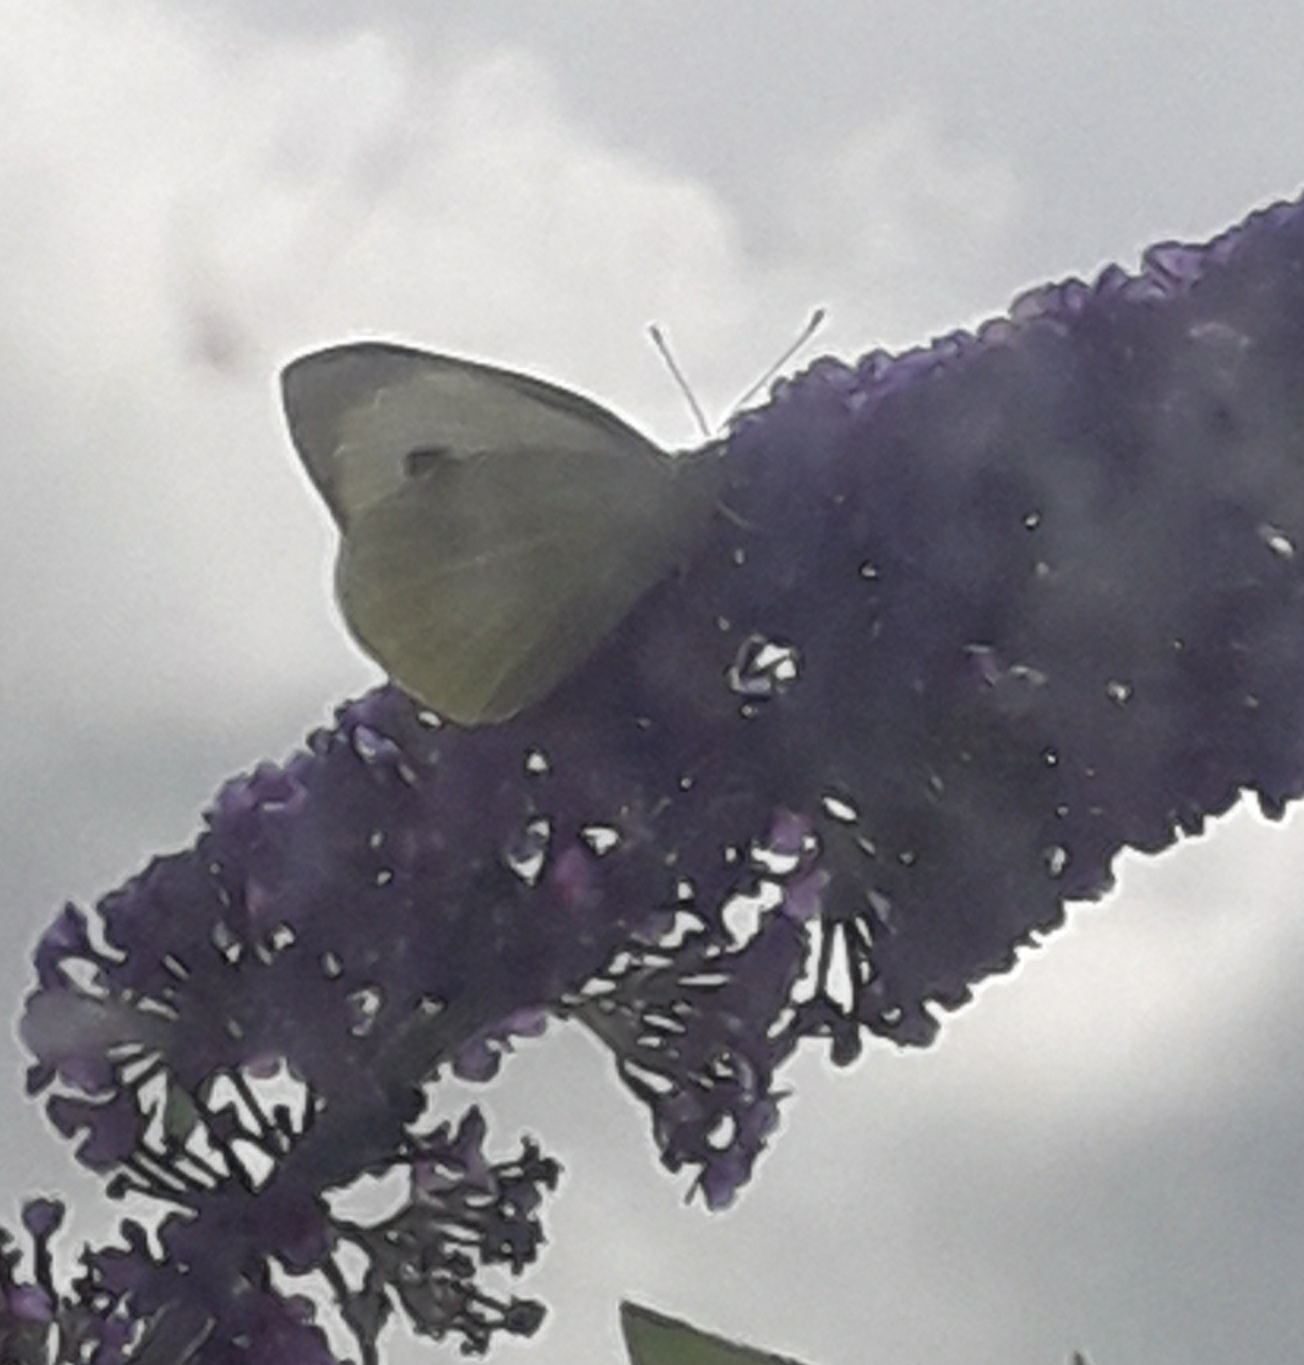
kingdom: Animalia
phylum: Arthropoda
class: Insecta
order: Lepidoptera
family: Pieridae
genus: Pieris
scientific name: Pieris brassicae
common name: Large white
